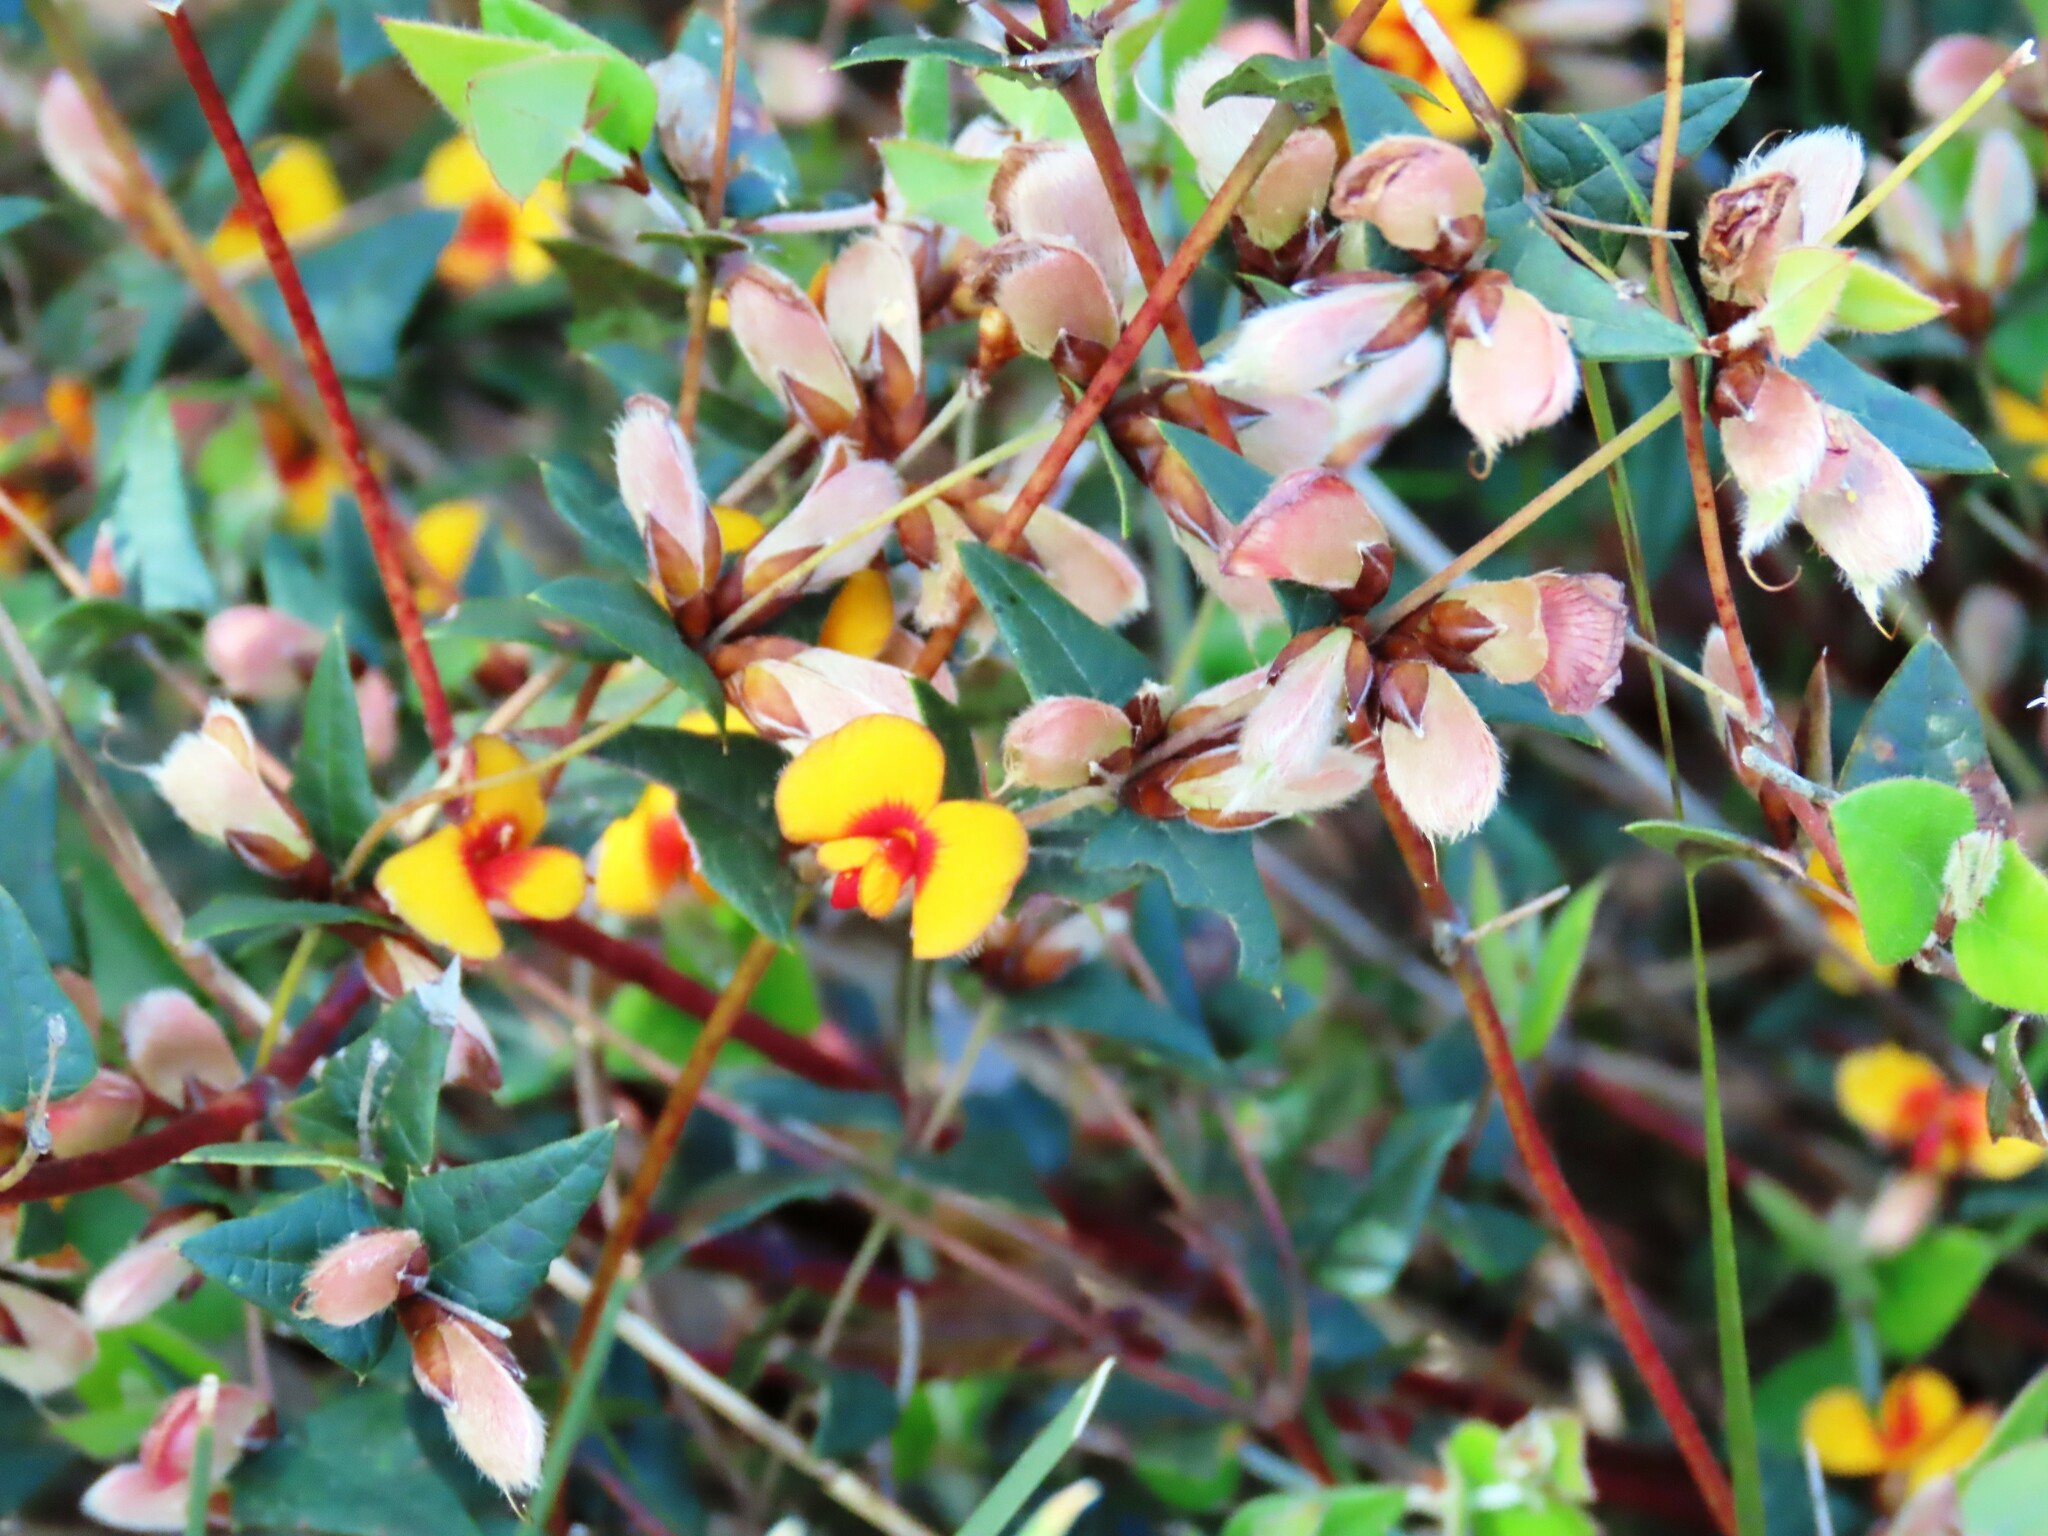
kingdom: Plantae
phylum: Tracheophyta
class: Magnoliopsida
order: Fabales
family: Fabaceae
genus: Platylobium
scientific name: Platylobium obtusangulum
